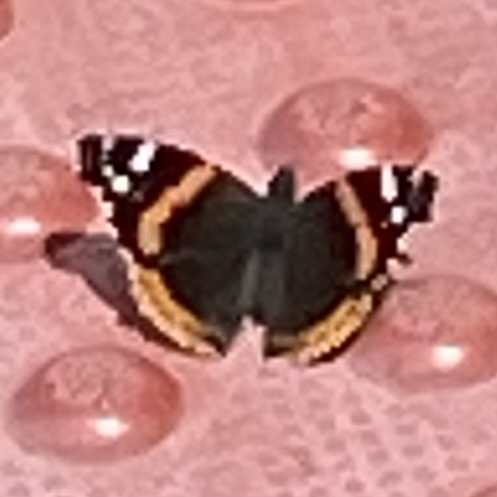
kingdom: Animalia
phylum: Arthropoda
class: Insecta
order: Lepidoptera
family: Nymphalidae
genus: Vanessa
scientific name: Vanessa atalanta
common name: Red admiral
